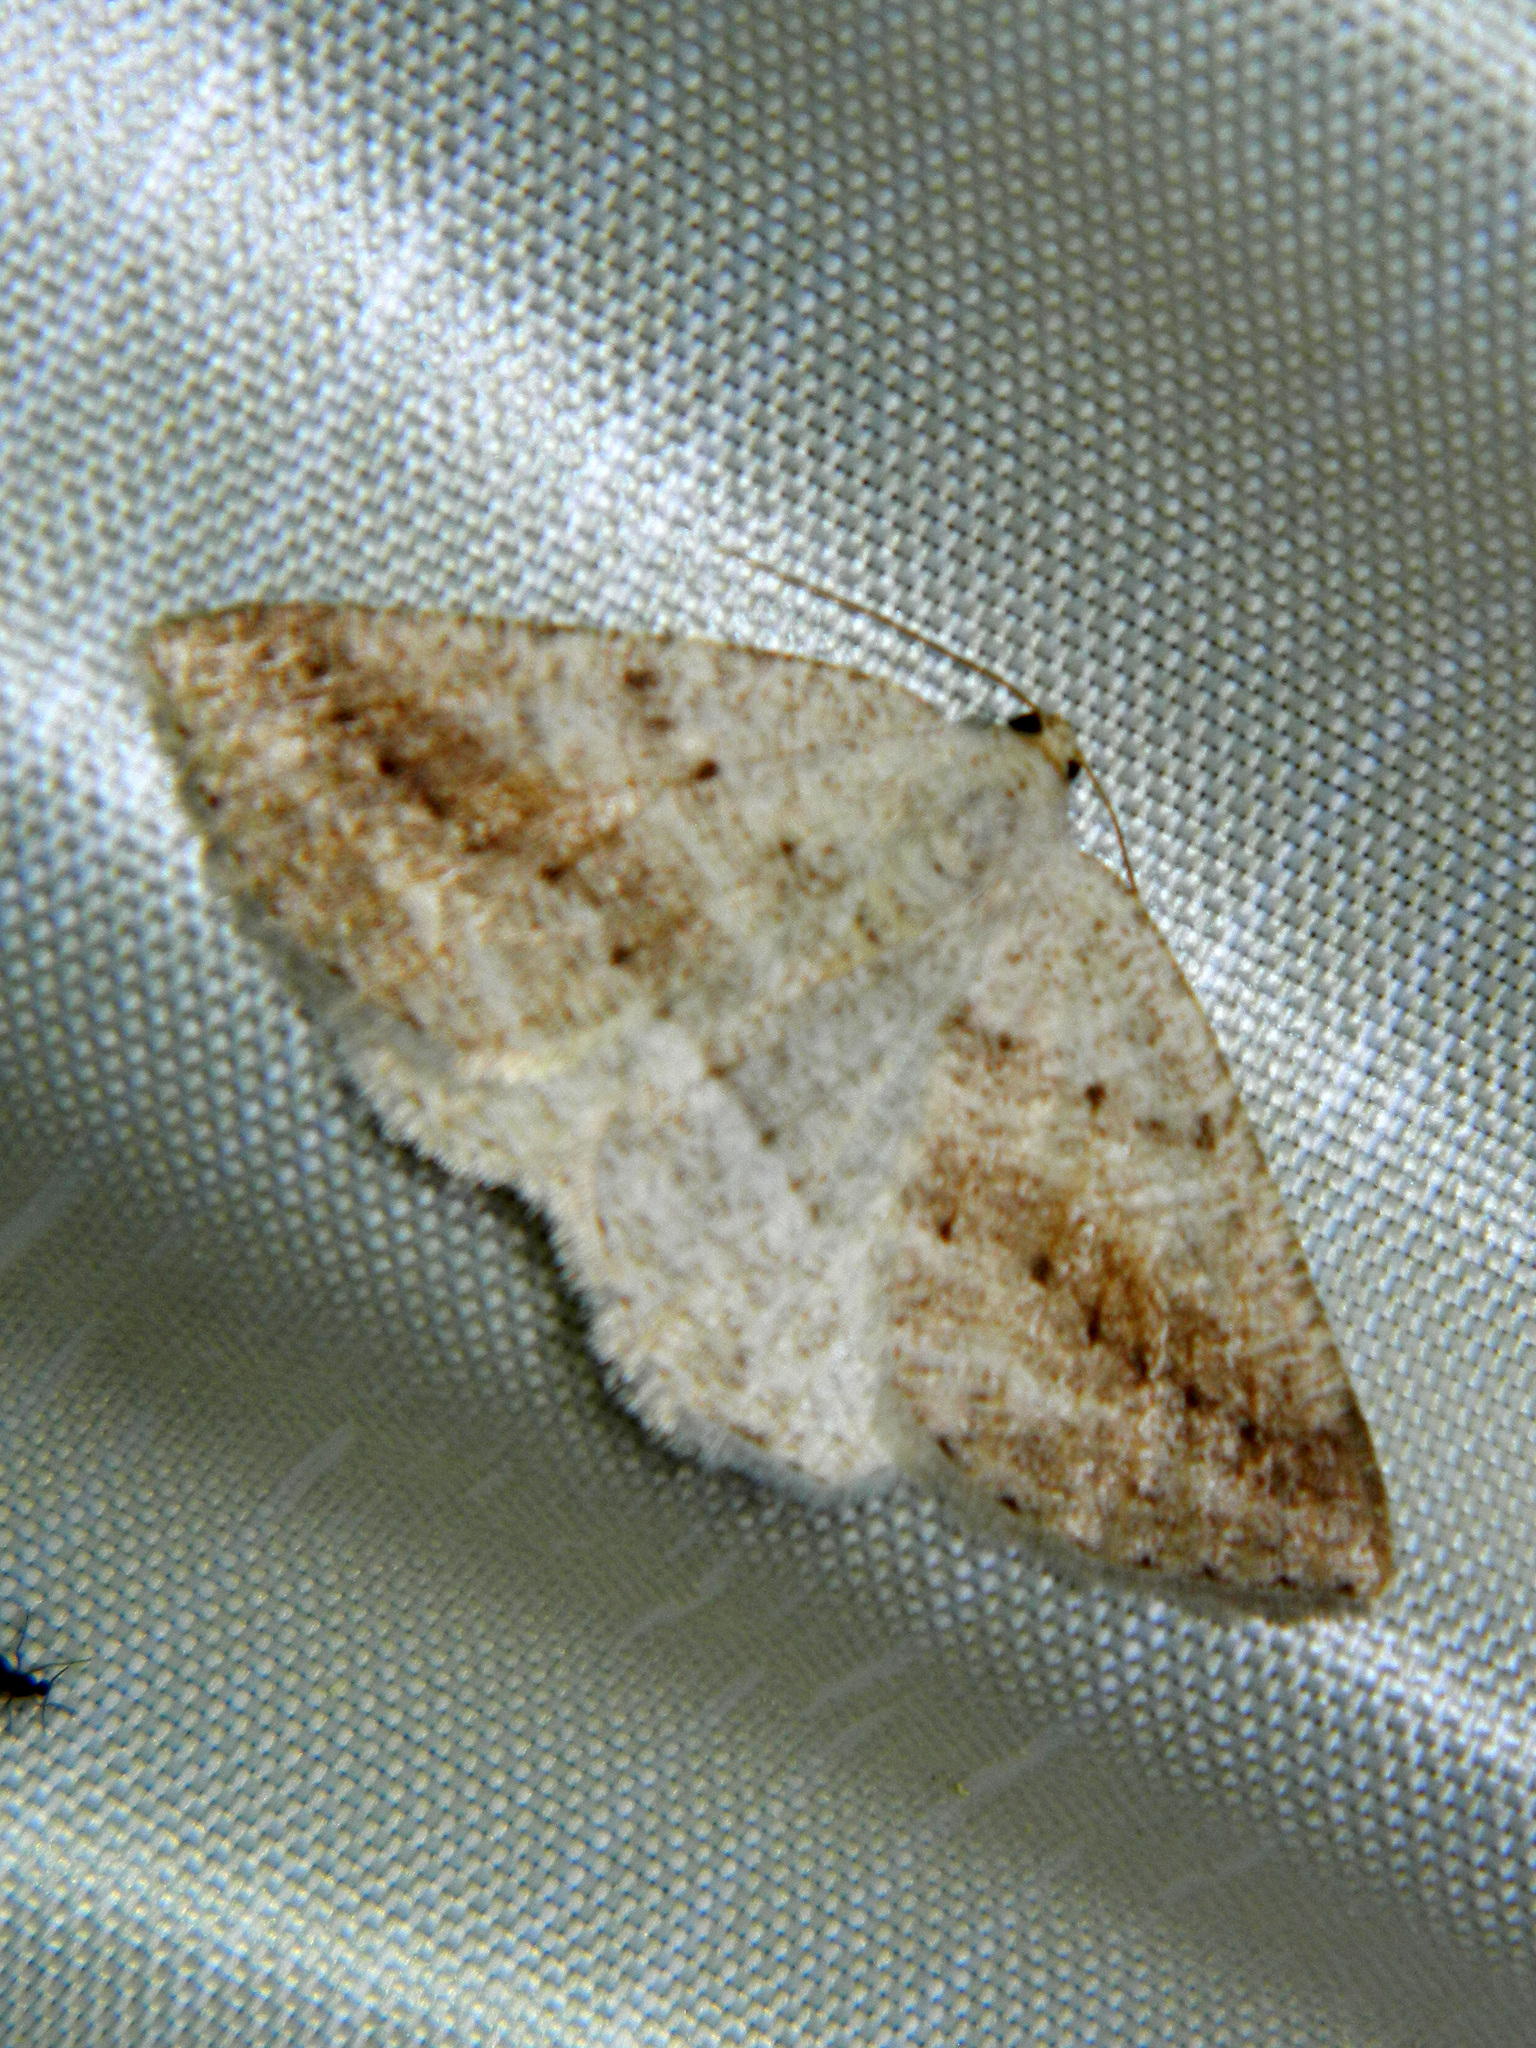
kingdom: Animalia
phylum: Arthropoda
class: Insecta
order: Lepidoptera
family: Geometridae
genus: Tacparia
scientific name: Tacparia detersata
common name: Pale alder moth
